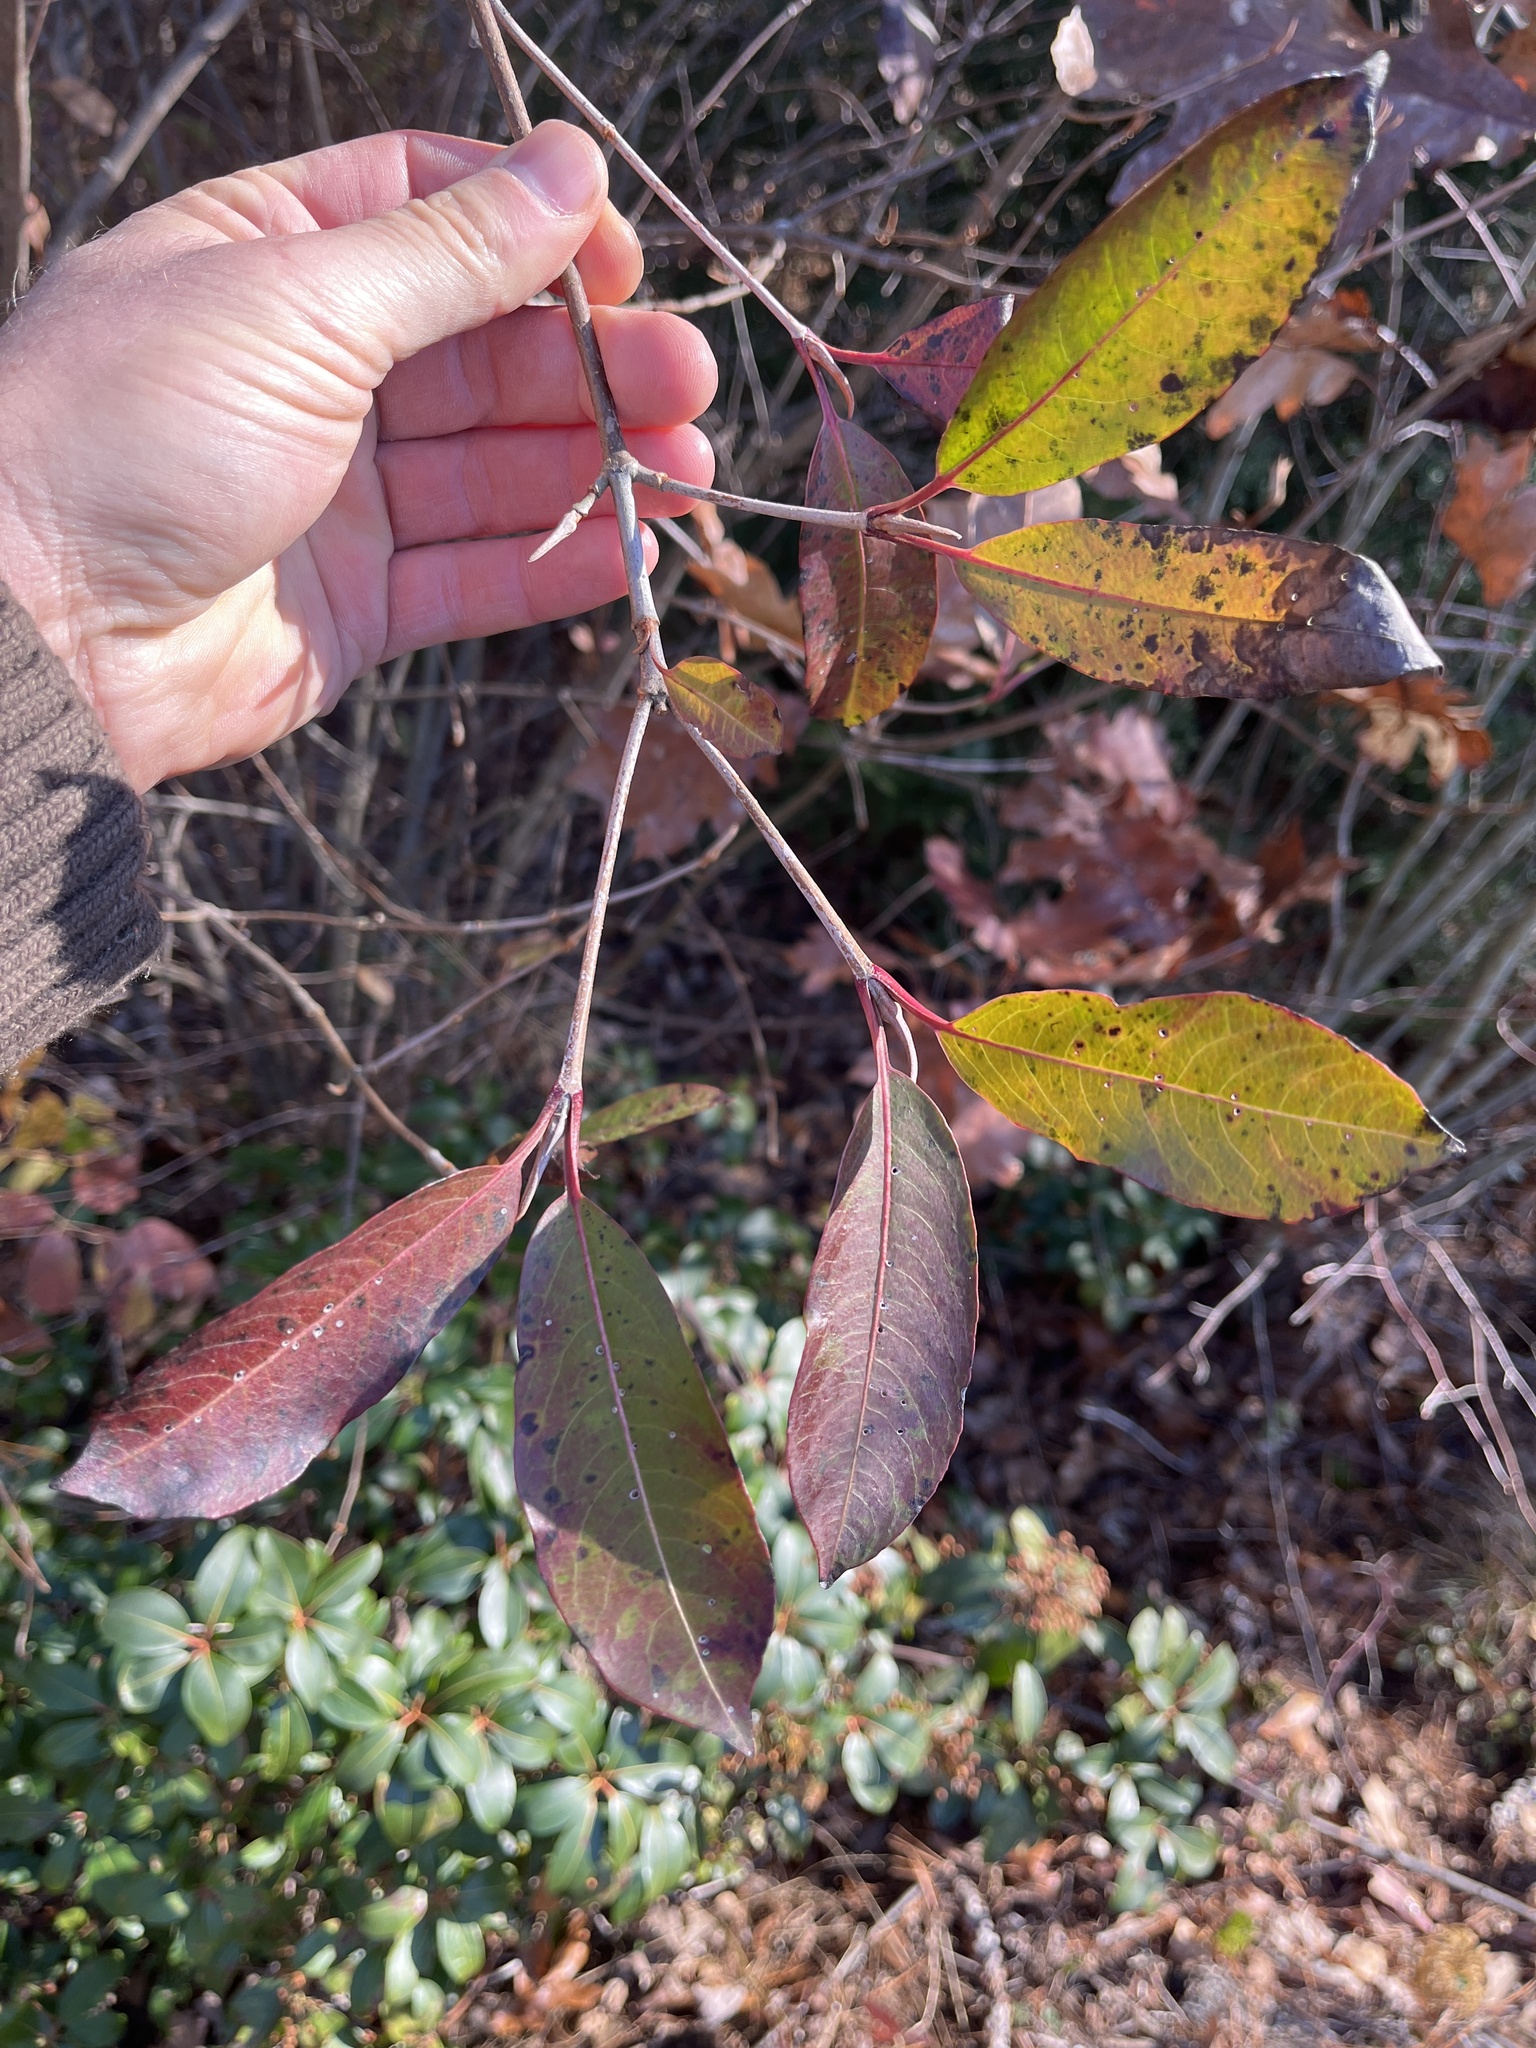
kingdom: Plantae
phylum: Tracheophyta
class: Magnoliopsida
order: Dipsacales
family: Viburnaceae
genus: Viburnum
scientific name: Viburnum cassinoides
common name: Swamp haw
